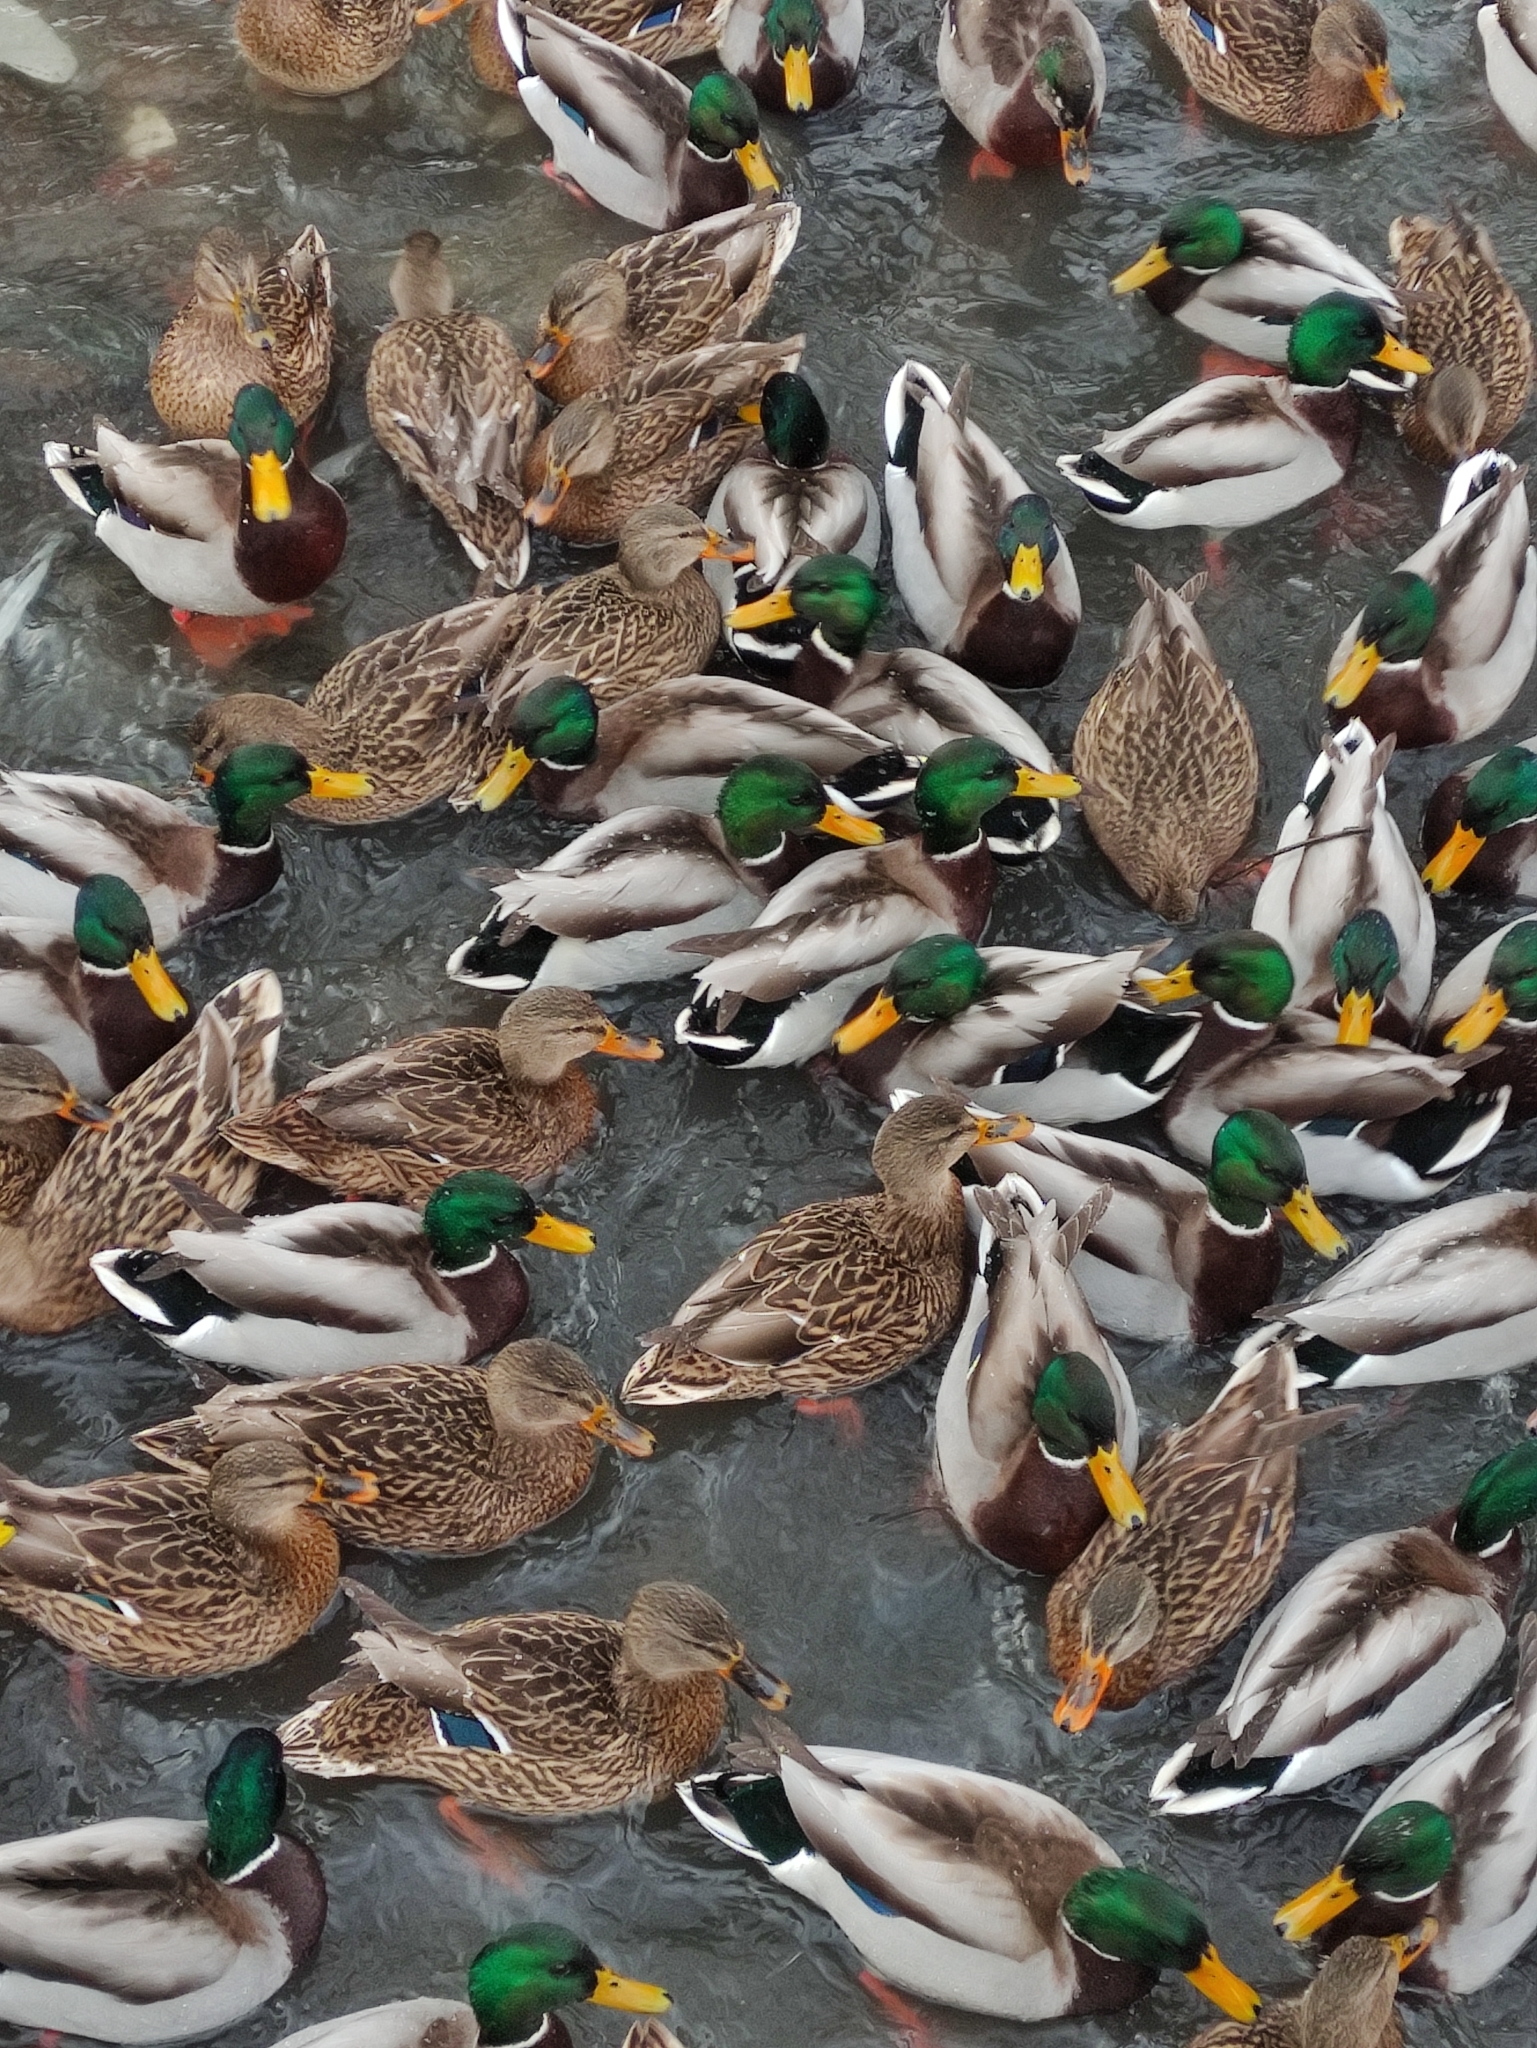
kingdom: Animalia
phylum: Chordata
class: Aves
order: Anseriformes
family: Anatidae
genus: Anas
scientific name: Anas platyrhynchos
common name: Mallard
